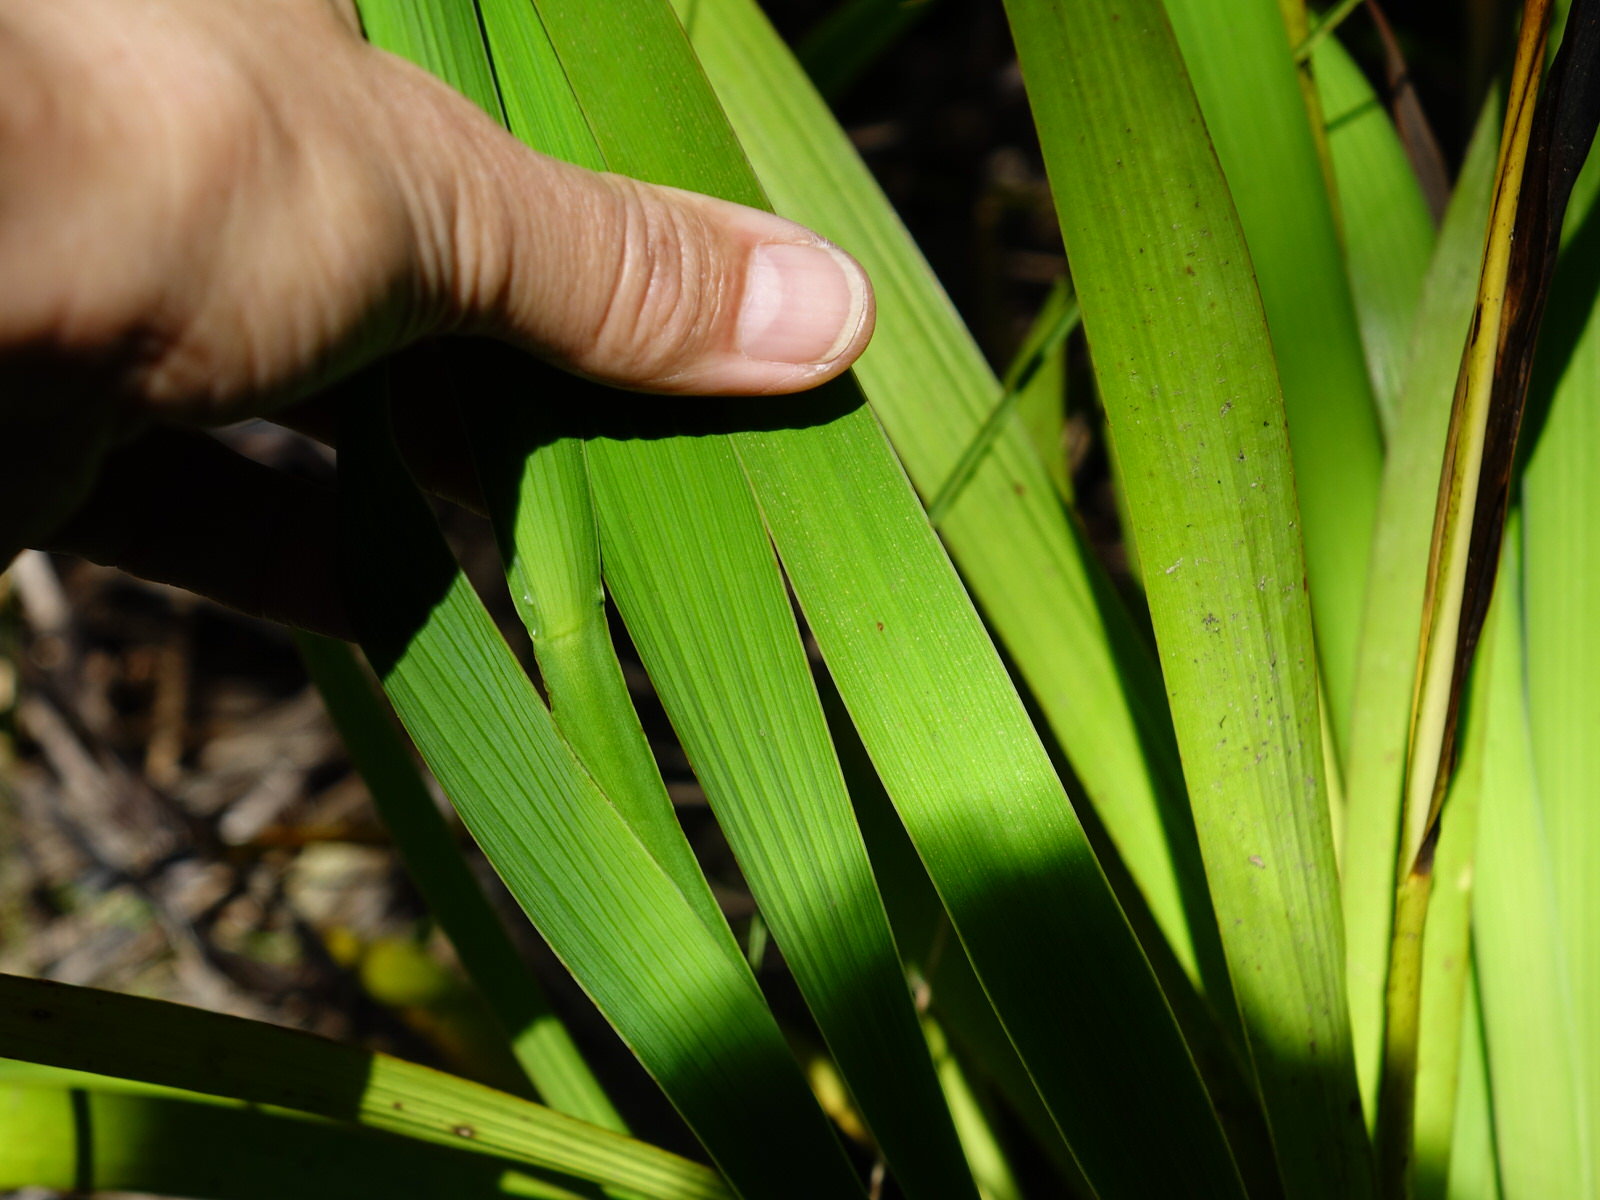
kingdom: Plantae
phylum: Tracheophyta
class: Liliopsida
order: Asparagales
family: Iridaceae
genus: Aristea
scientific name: Aristea ecklonii
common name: Blue corn-lily
